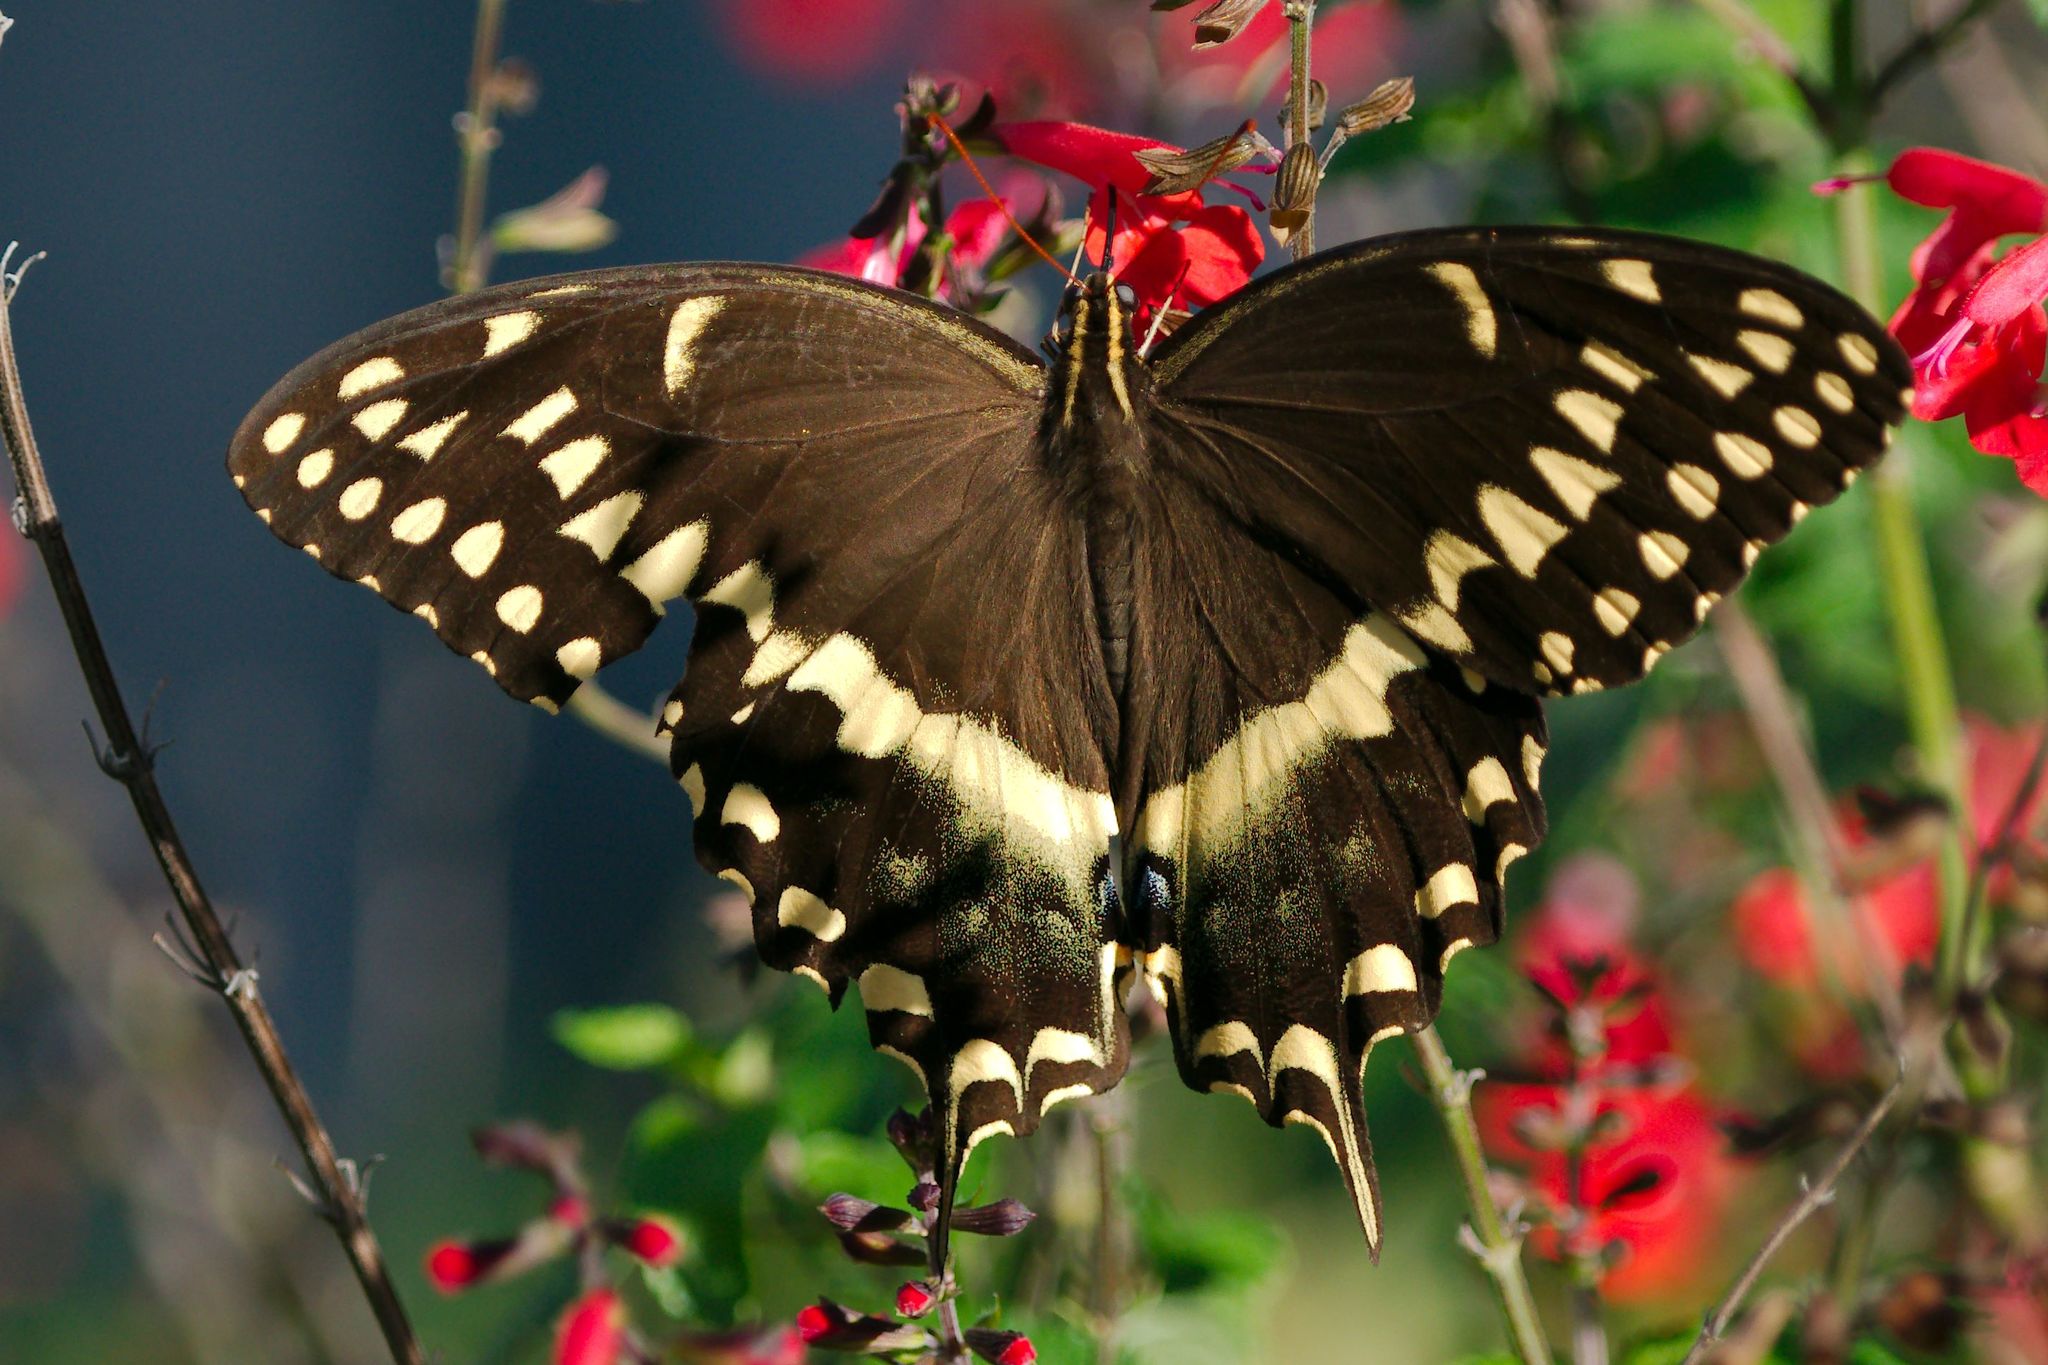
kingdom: Animalia
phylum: Arthropoda
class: Insecta
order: Lepidoptera
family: Papilionidae
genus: Papilio
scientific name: Papilio palamedes
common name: Palamedes swallowtail
